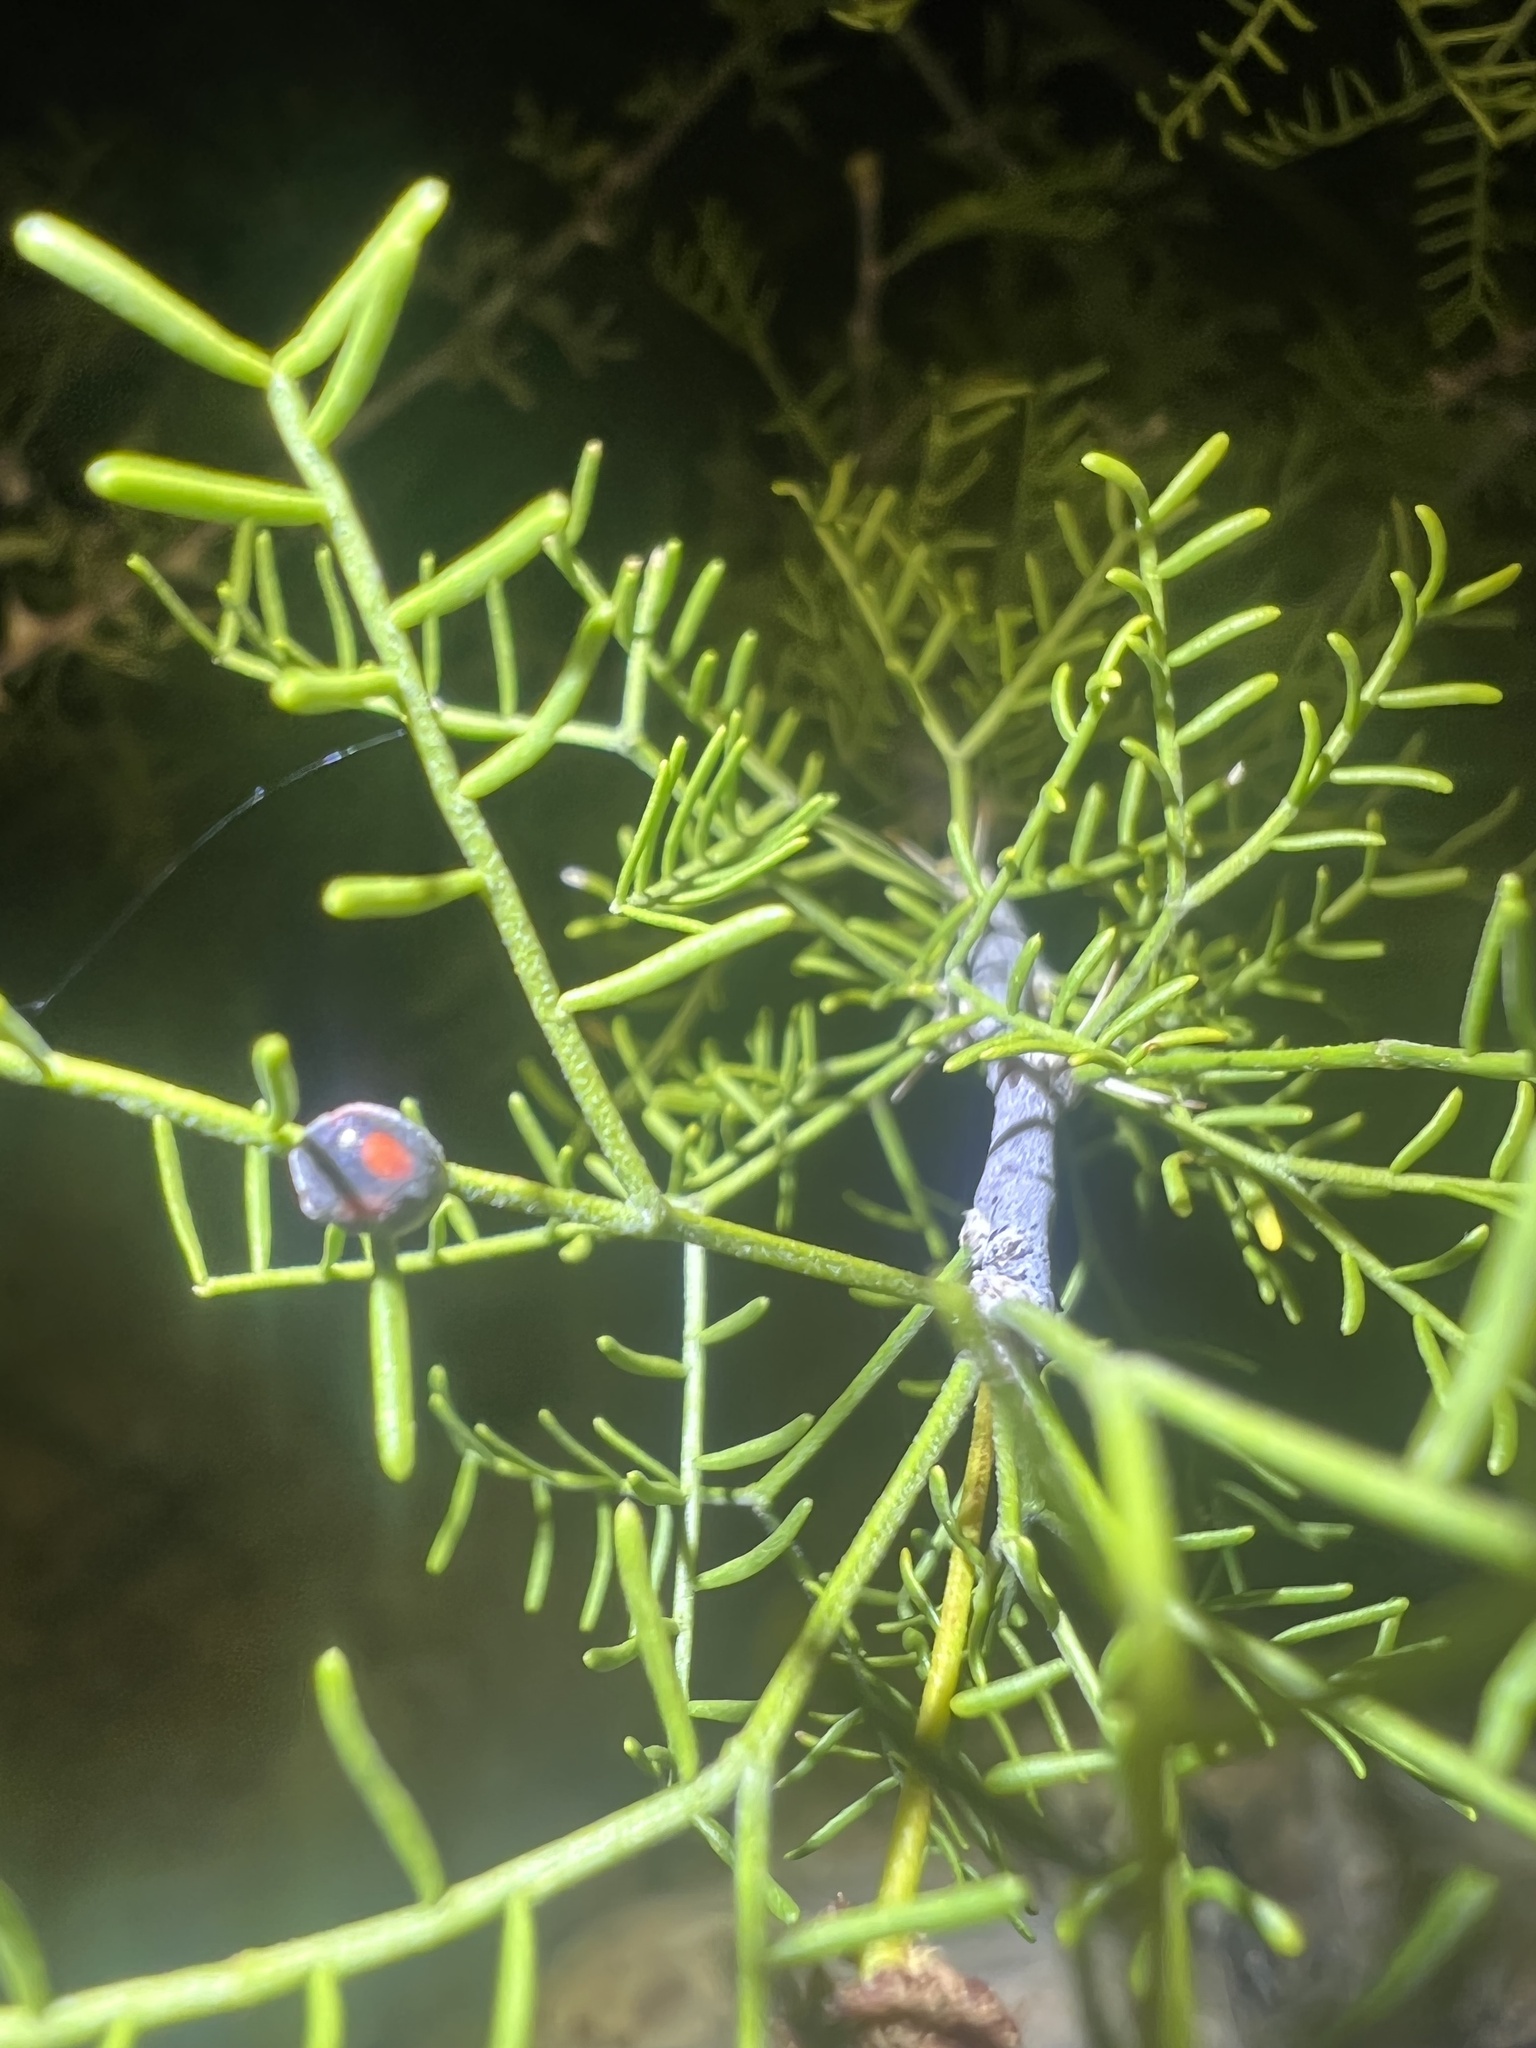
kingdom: Animalia
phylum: Arthropoda
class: Insecta
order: Coleoptera
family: Coccinellidae
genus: Novius
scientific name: Novius virginalis
